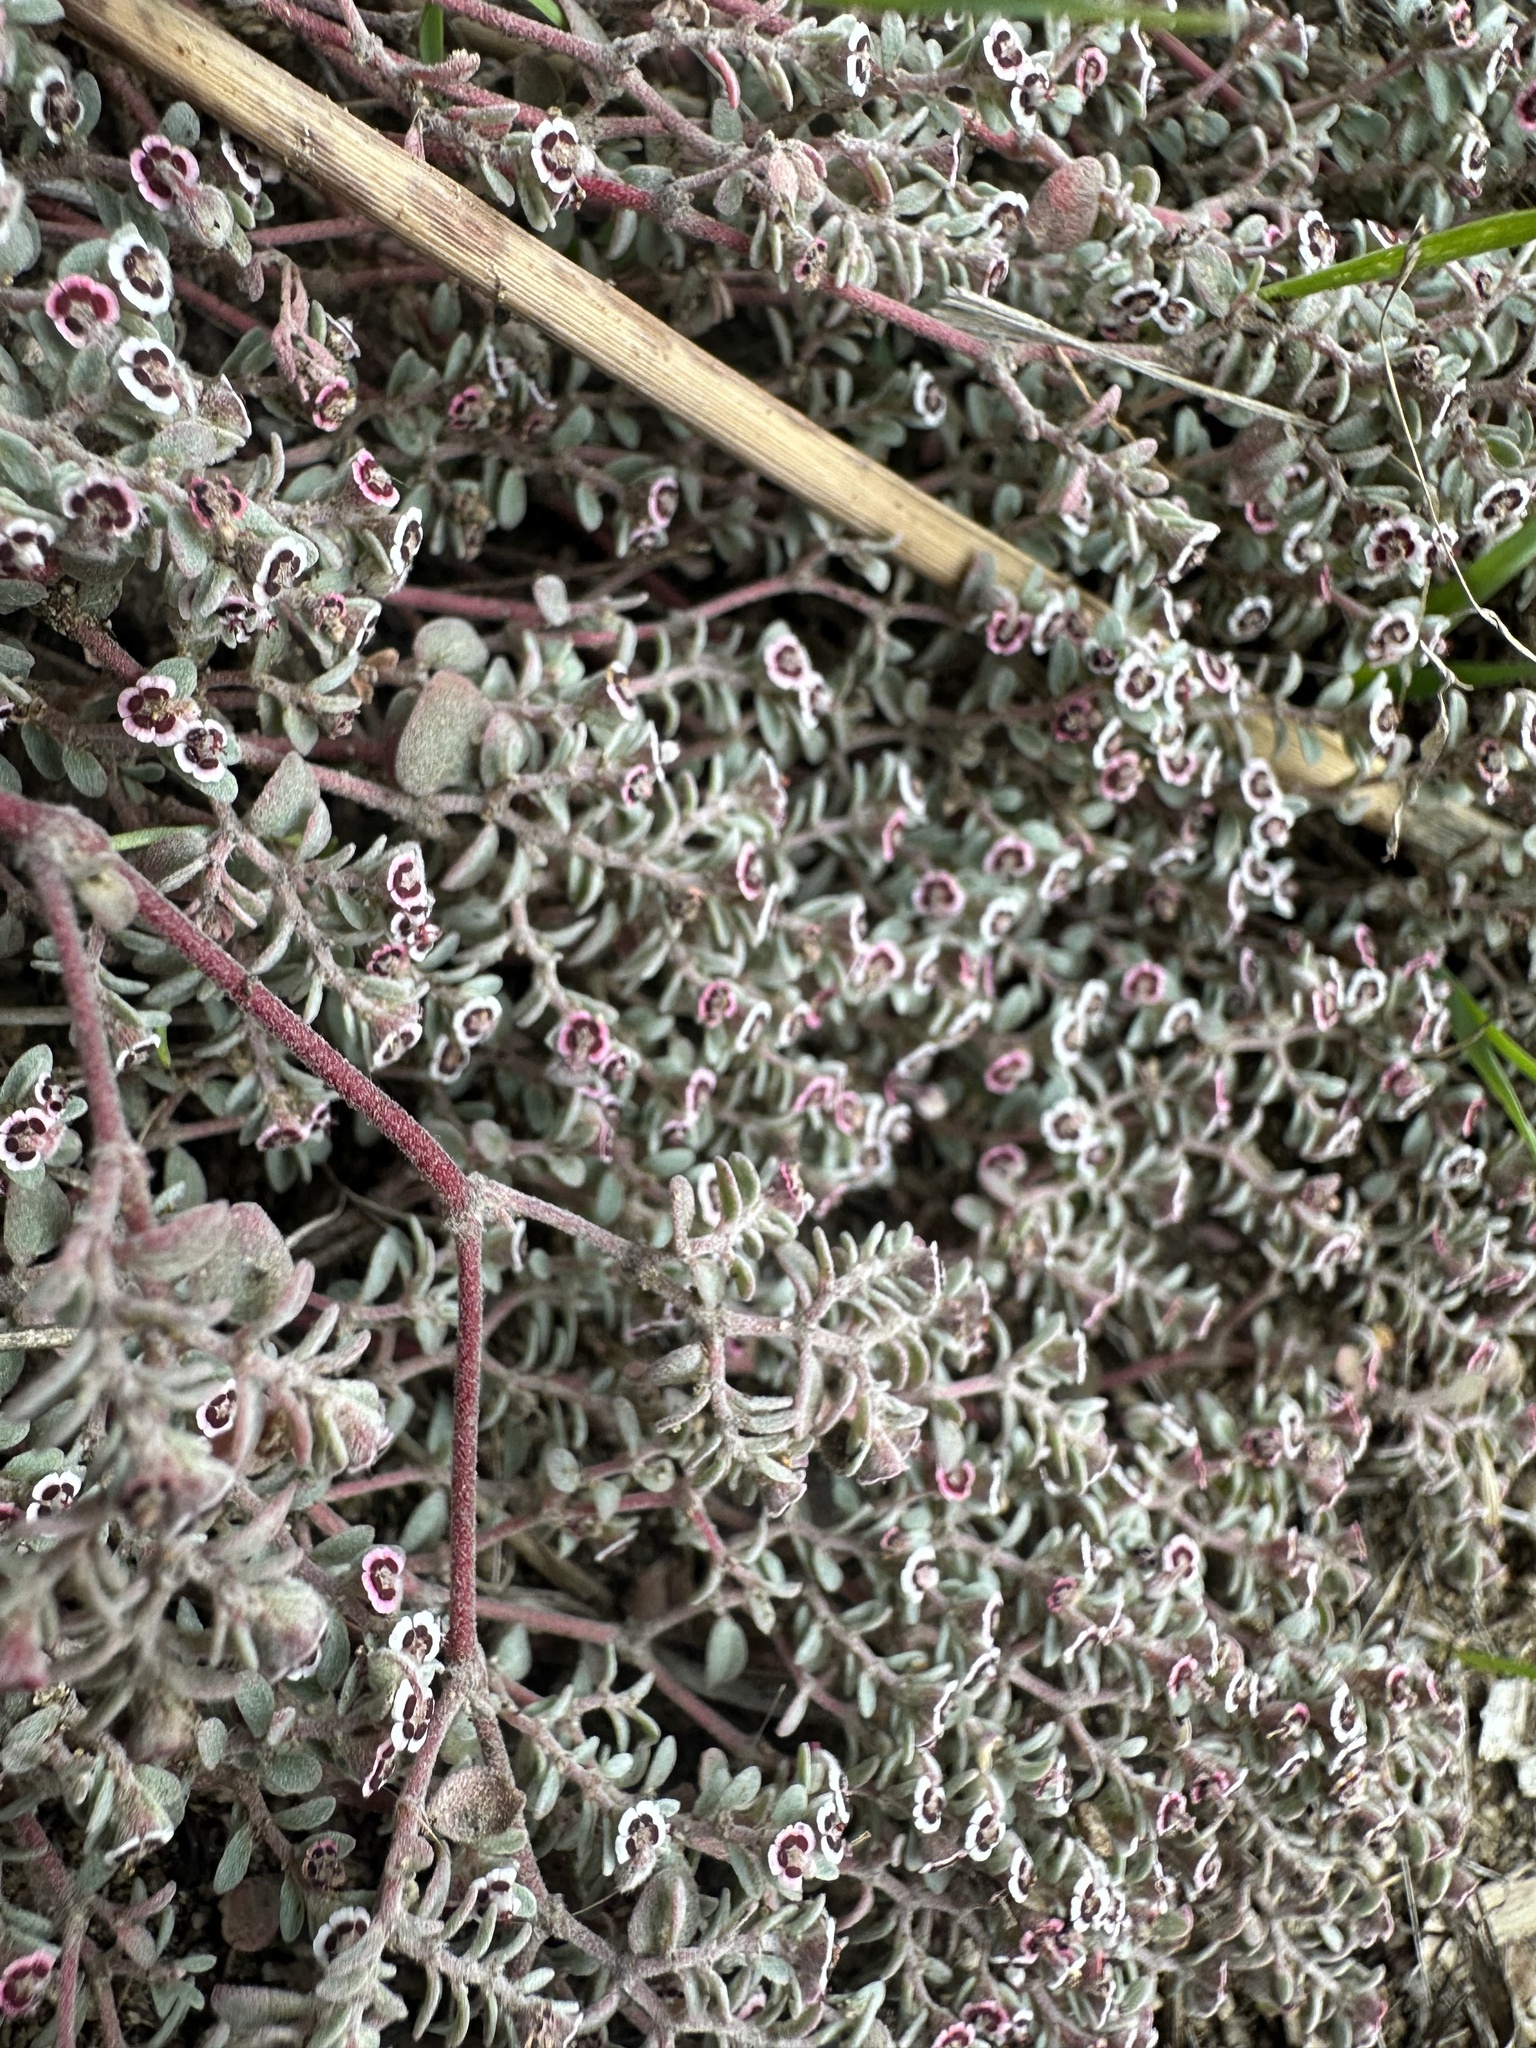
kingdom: Plantae
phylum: Tracheophyta
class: Magnoliopsida
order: Malpighiales
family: Euphorbiaceae
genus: Euphorbia
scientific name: Euphorbia melanadenia
